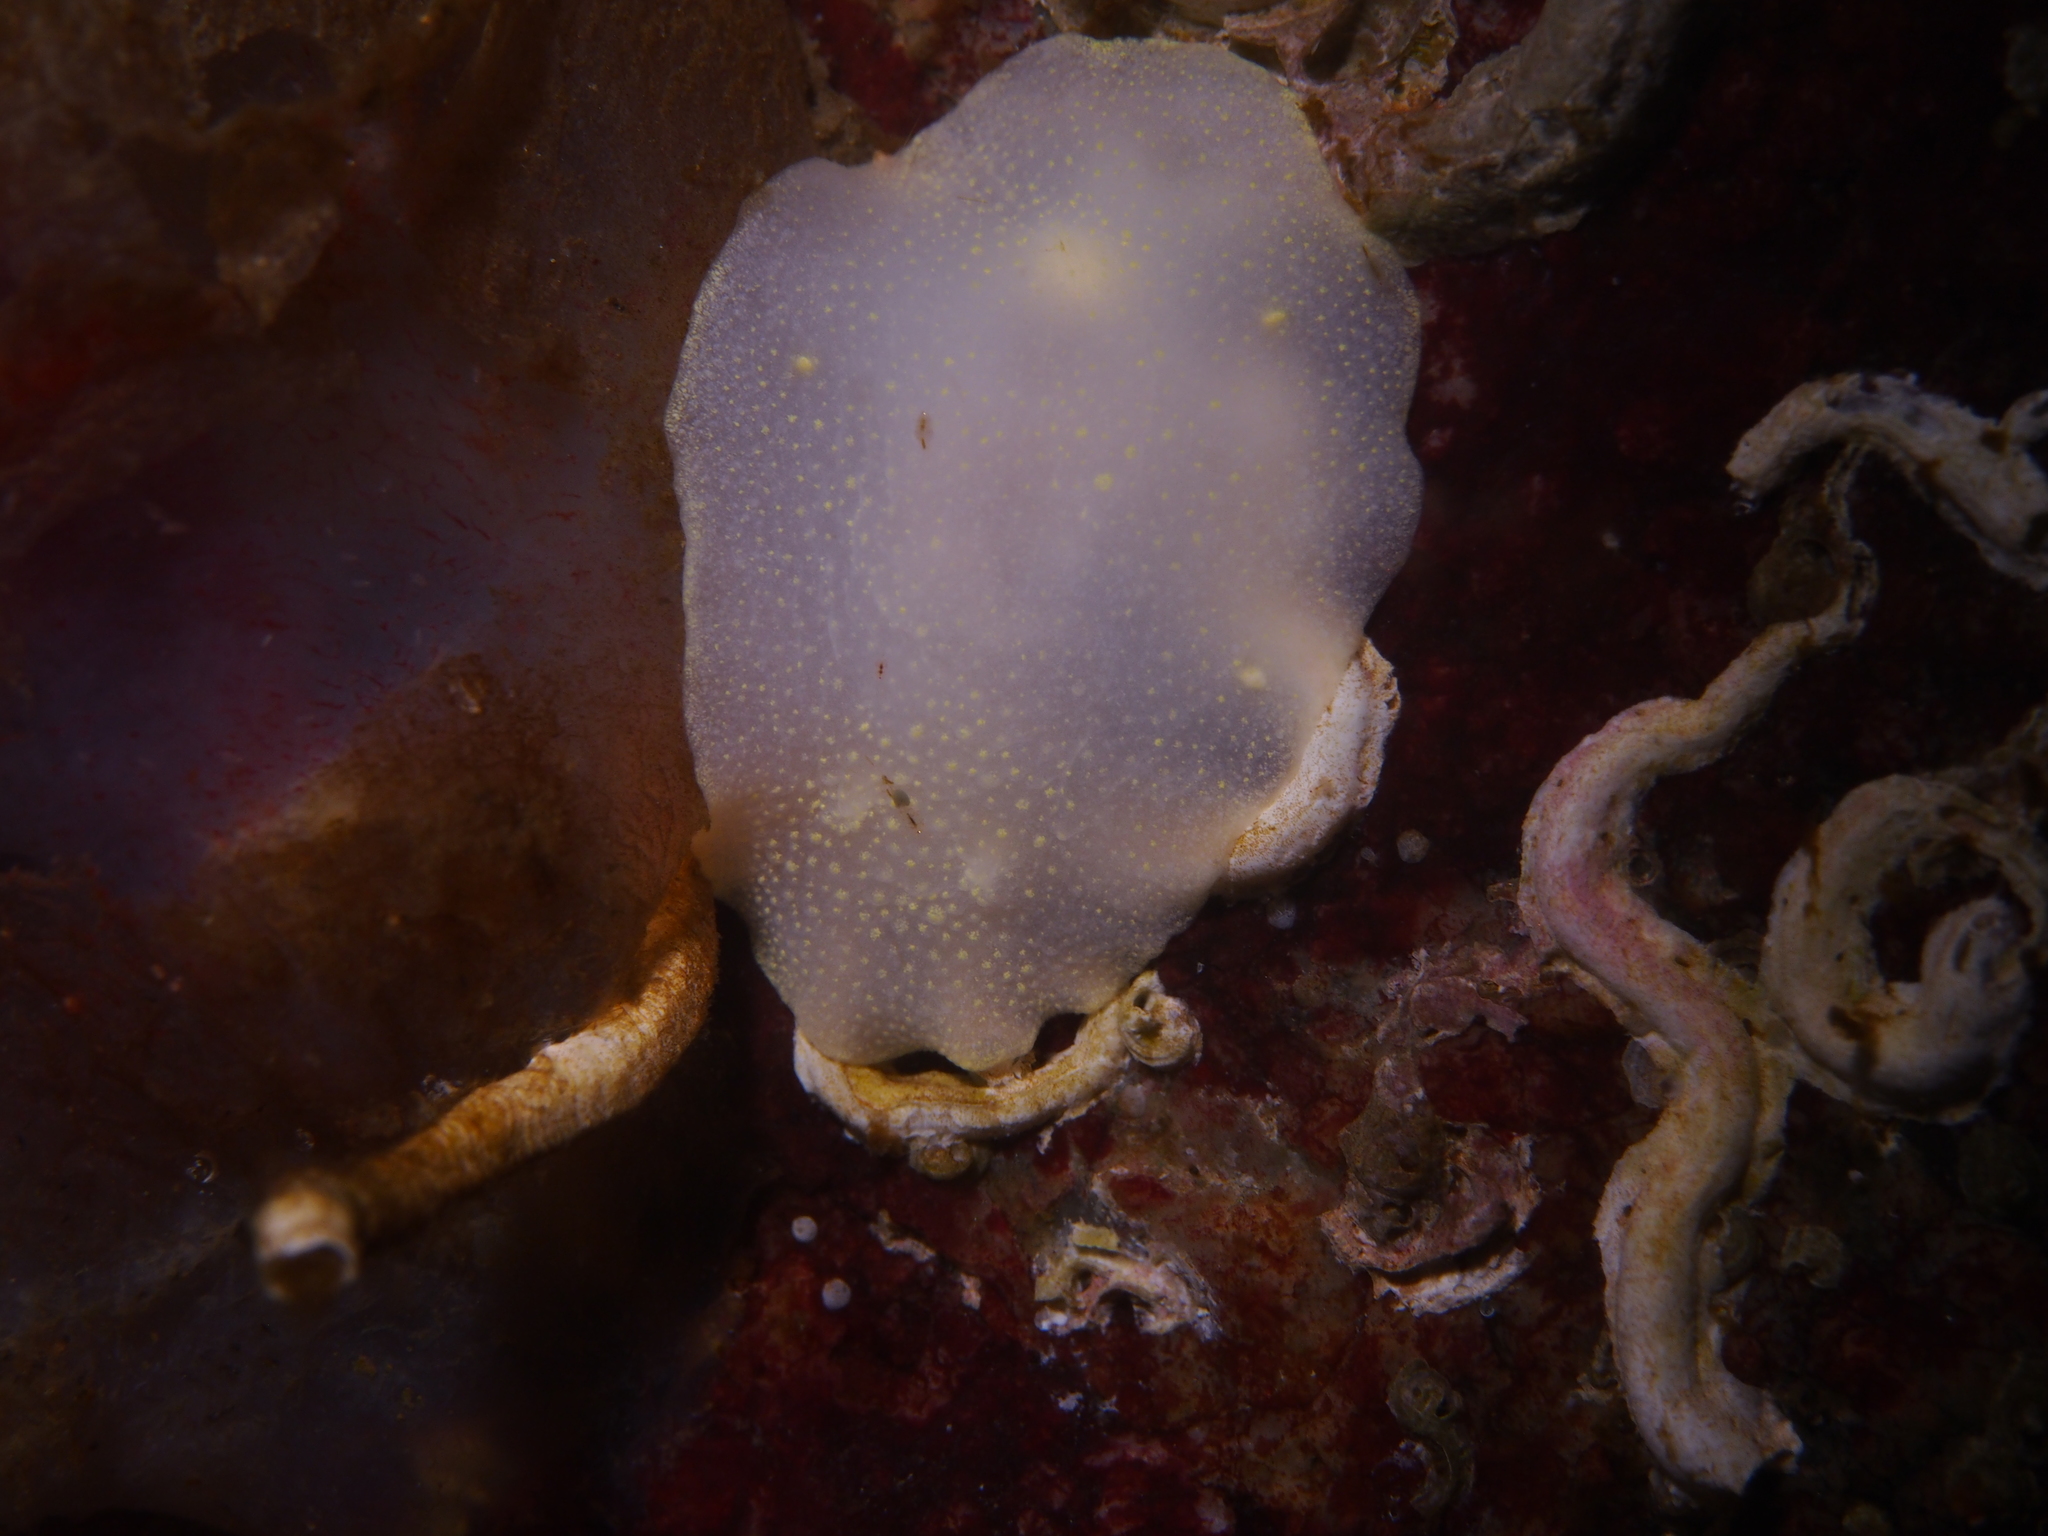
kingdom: Animalia
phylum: Mollusca
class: Gastropoda
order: Nudibranchia
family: Cadlinidae
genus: Cadlina
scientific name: Cadlina laevis
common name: White atlantic cadlina
